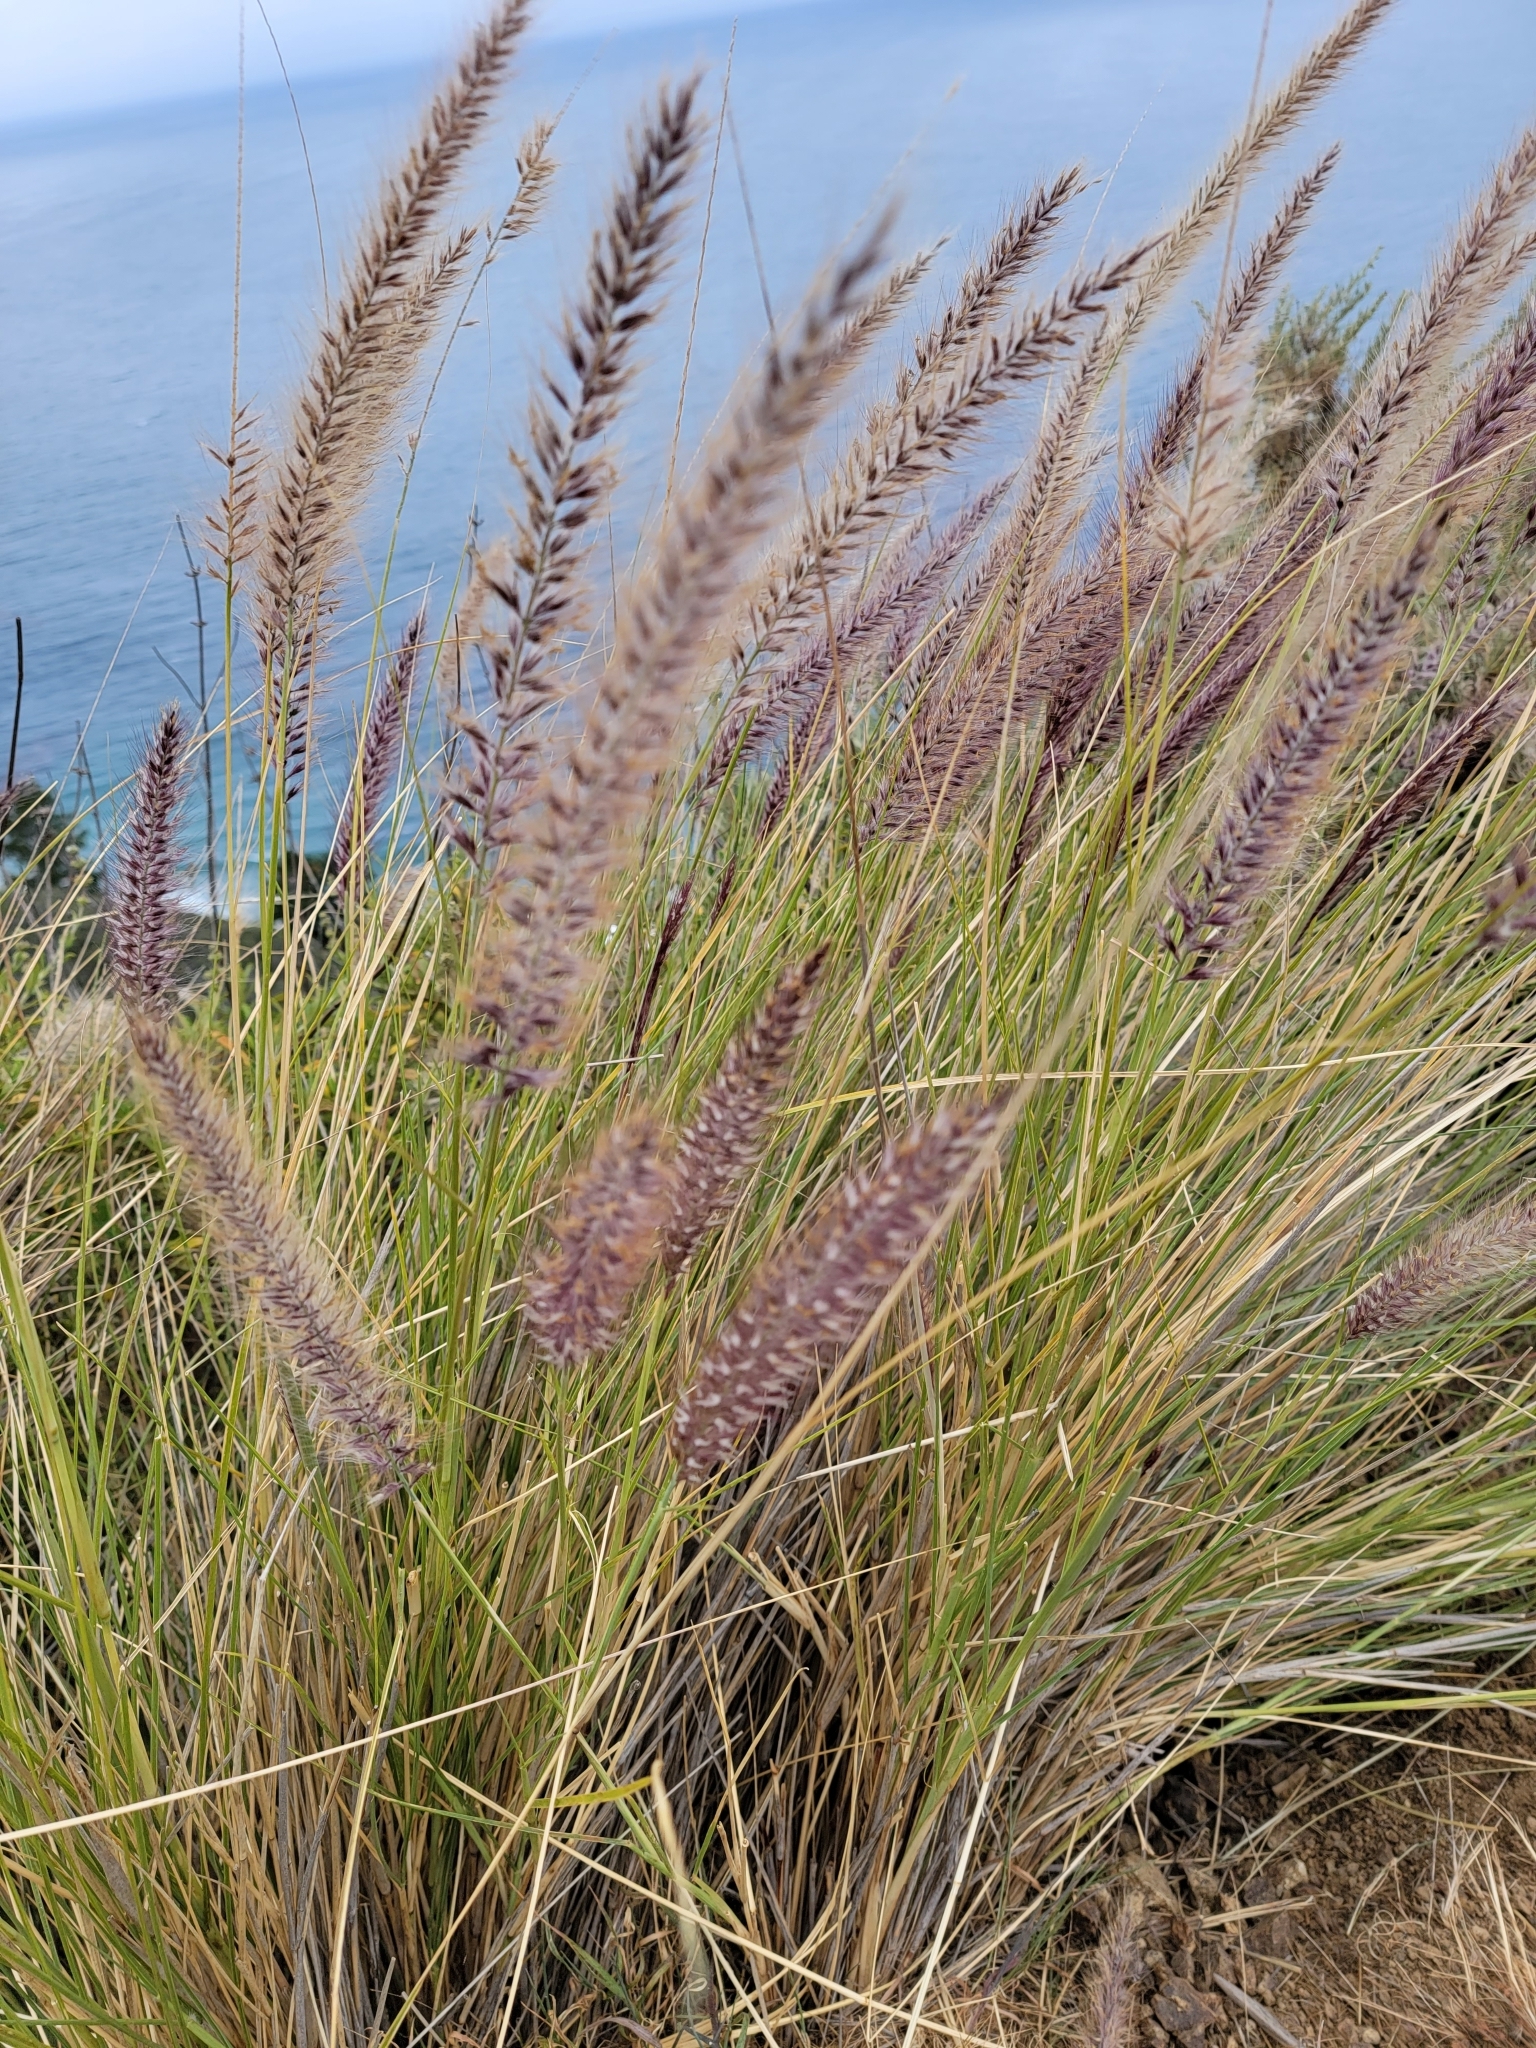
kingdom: Plantae
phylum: Tracheophyta
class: Liliopsida
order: Poales
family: Poaceae
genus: Cenchrus
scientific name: Cenchrus setaceus
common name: Crimson fountaingrass
